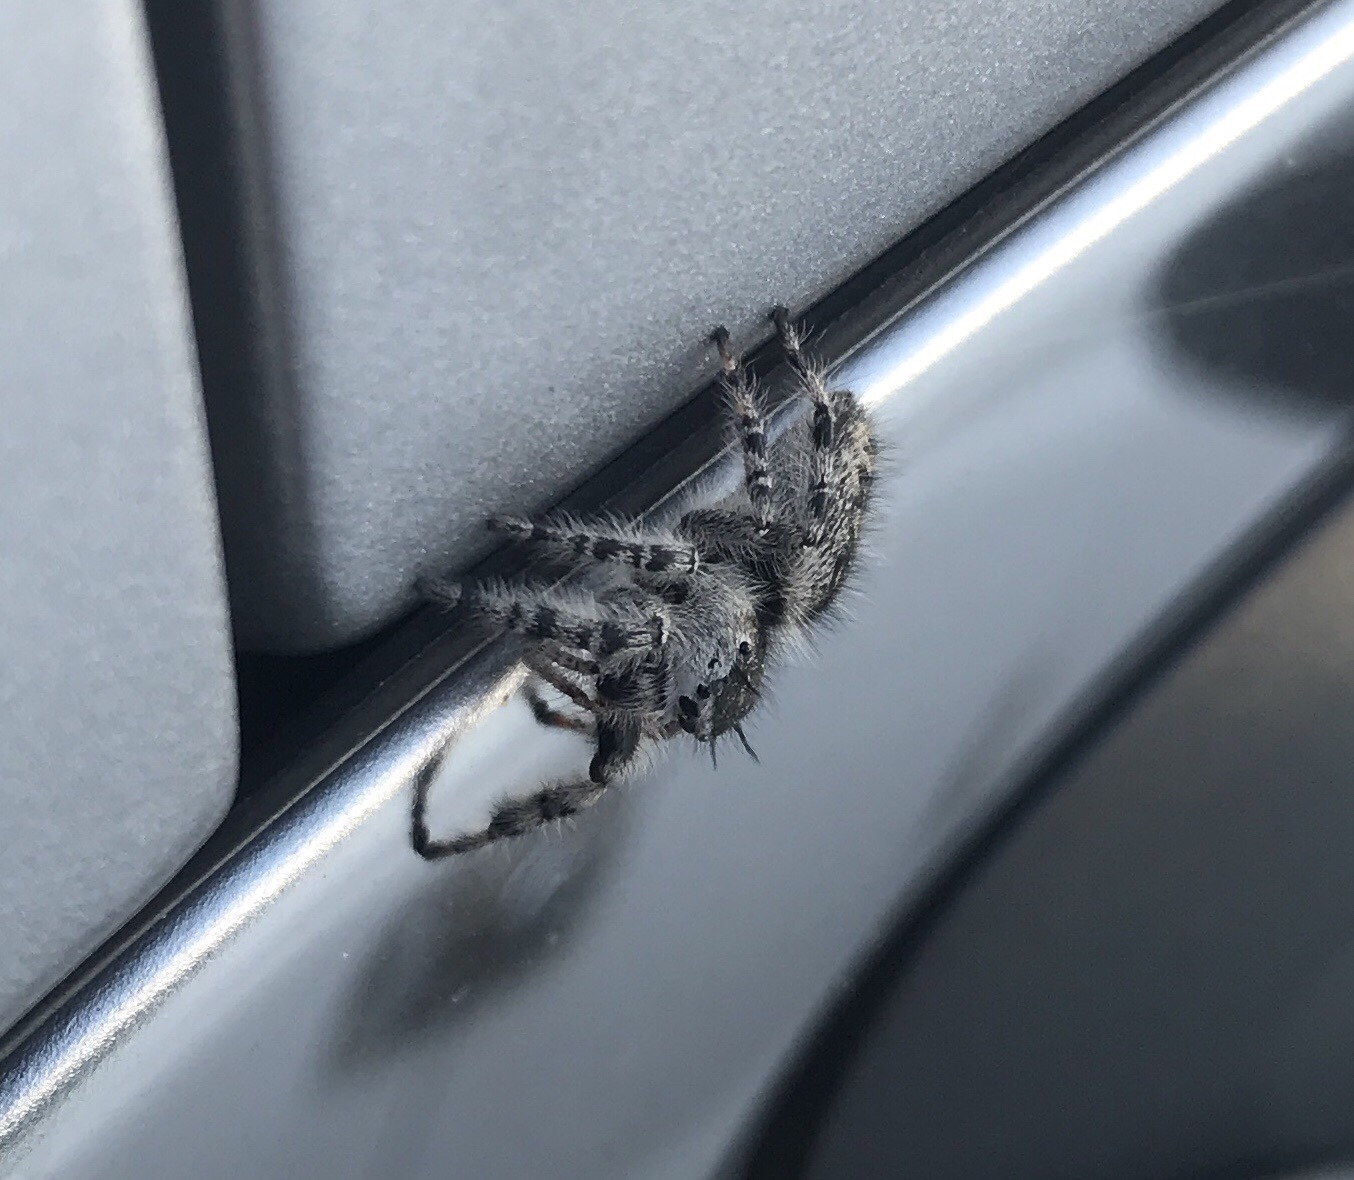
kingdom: Animalia
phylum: Arthropoda
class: Arachnida
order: Araneae
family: Salticidae
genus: Phidippus
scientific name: Phidippus otiosus
